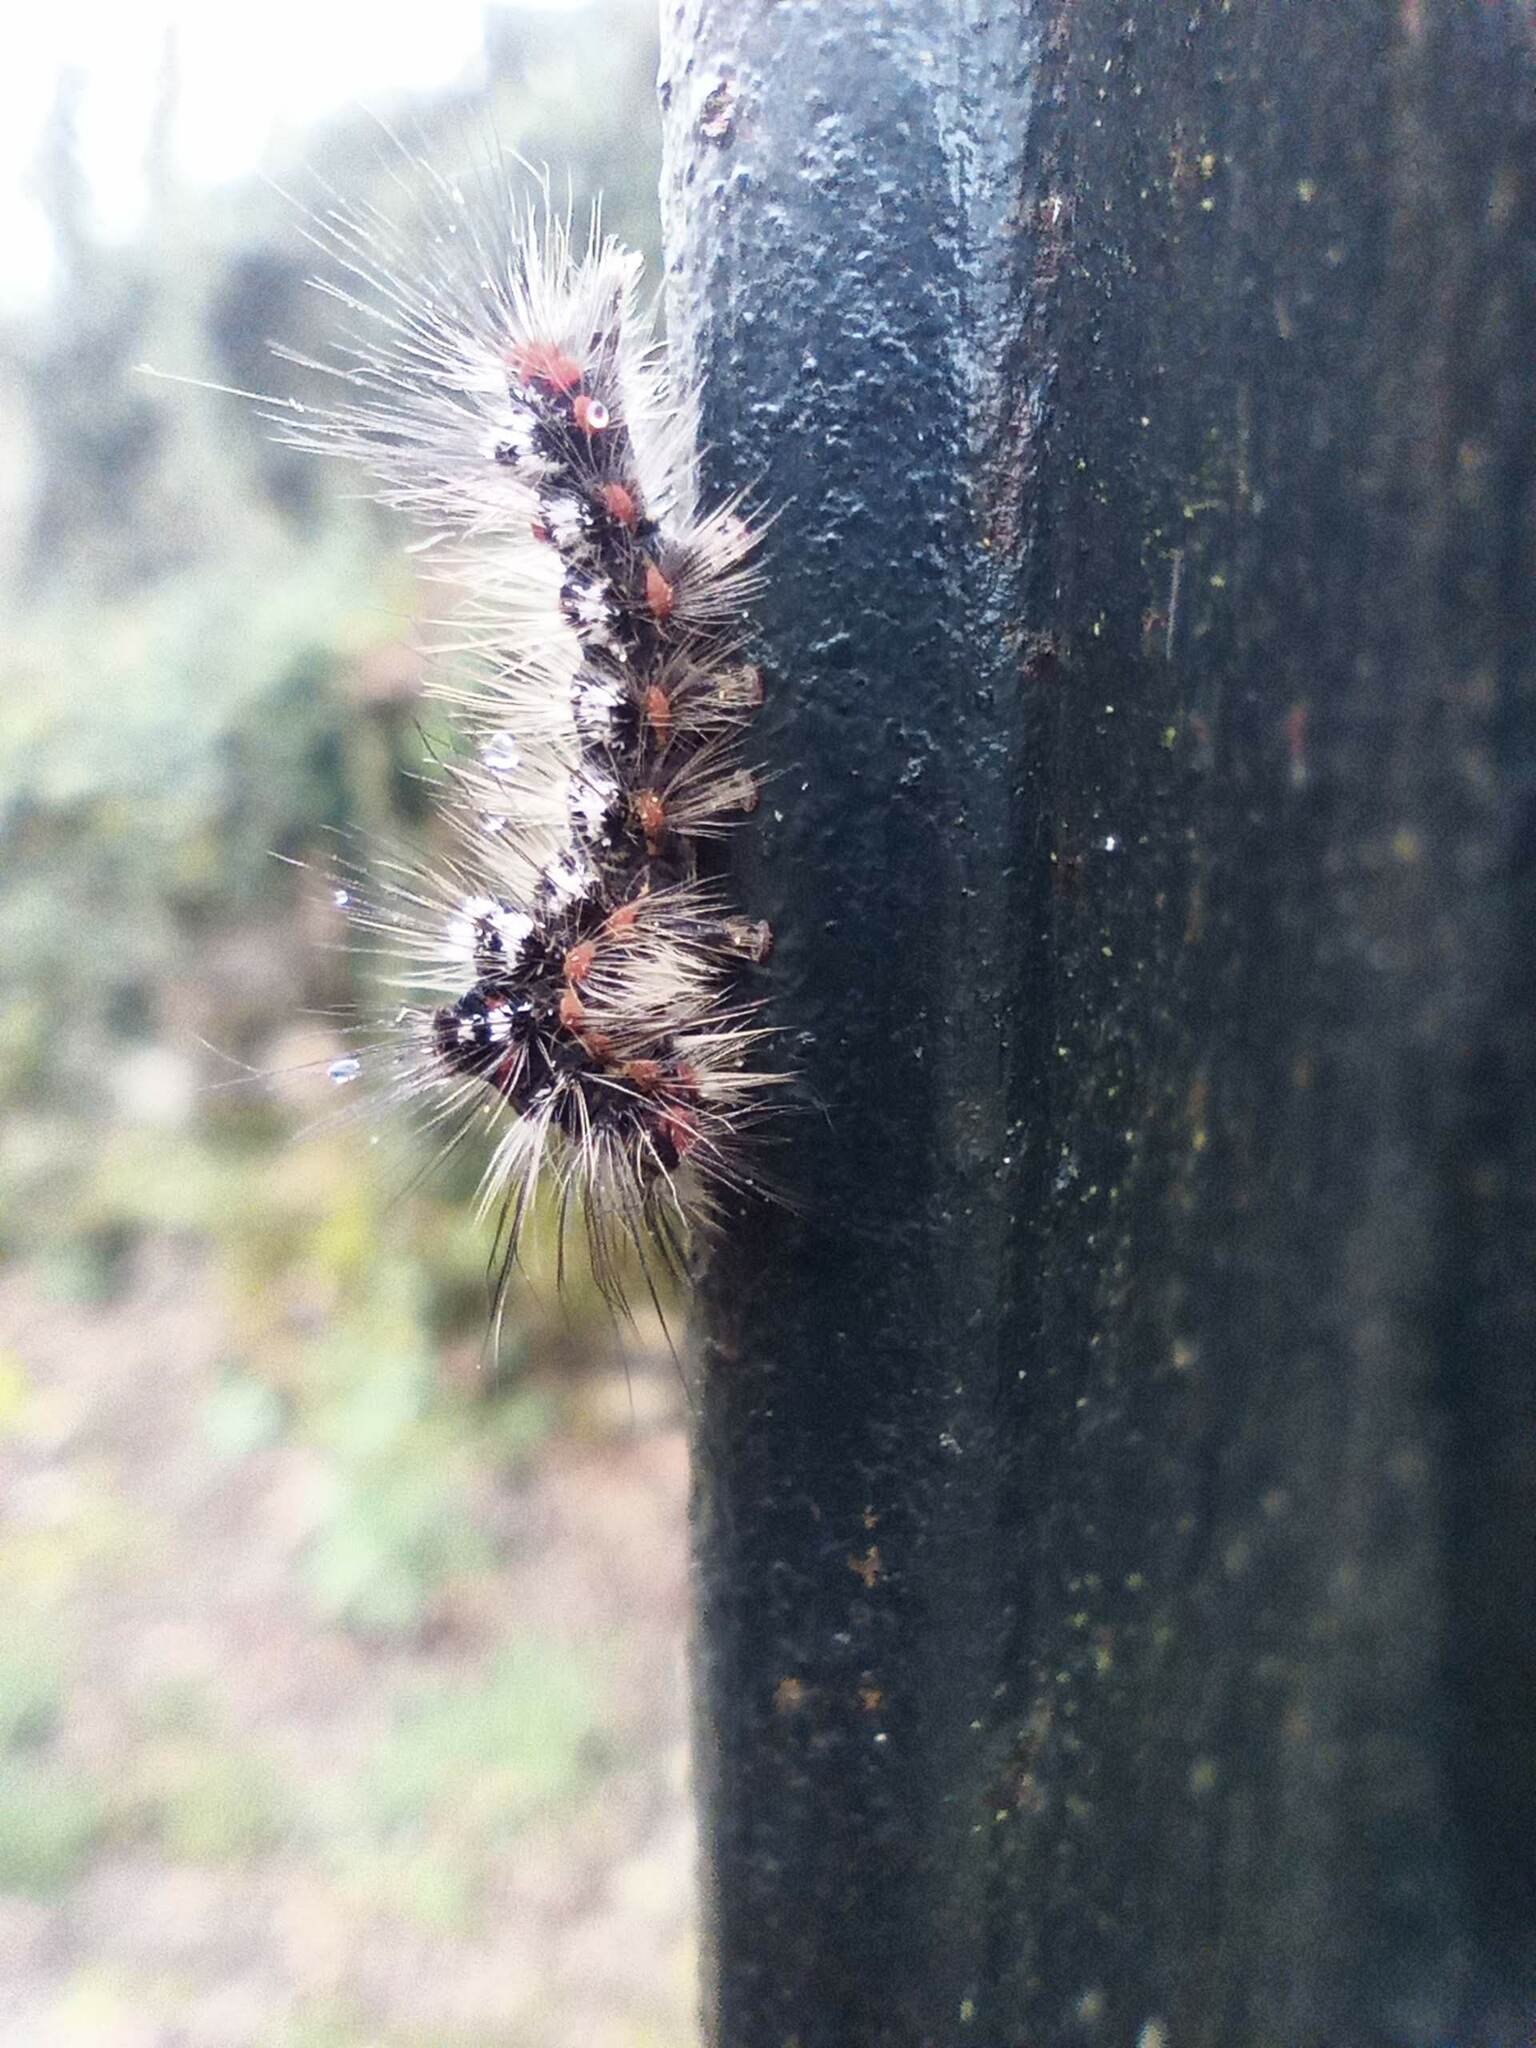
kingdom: Animalia
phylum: Arthropoda
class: Insecta
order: Lepidoptera
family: Erebidae
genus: Sphrageidus
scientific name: Sphrageidus similis
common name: Yellow-tail
